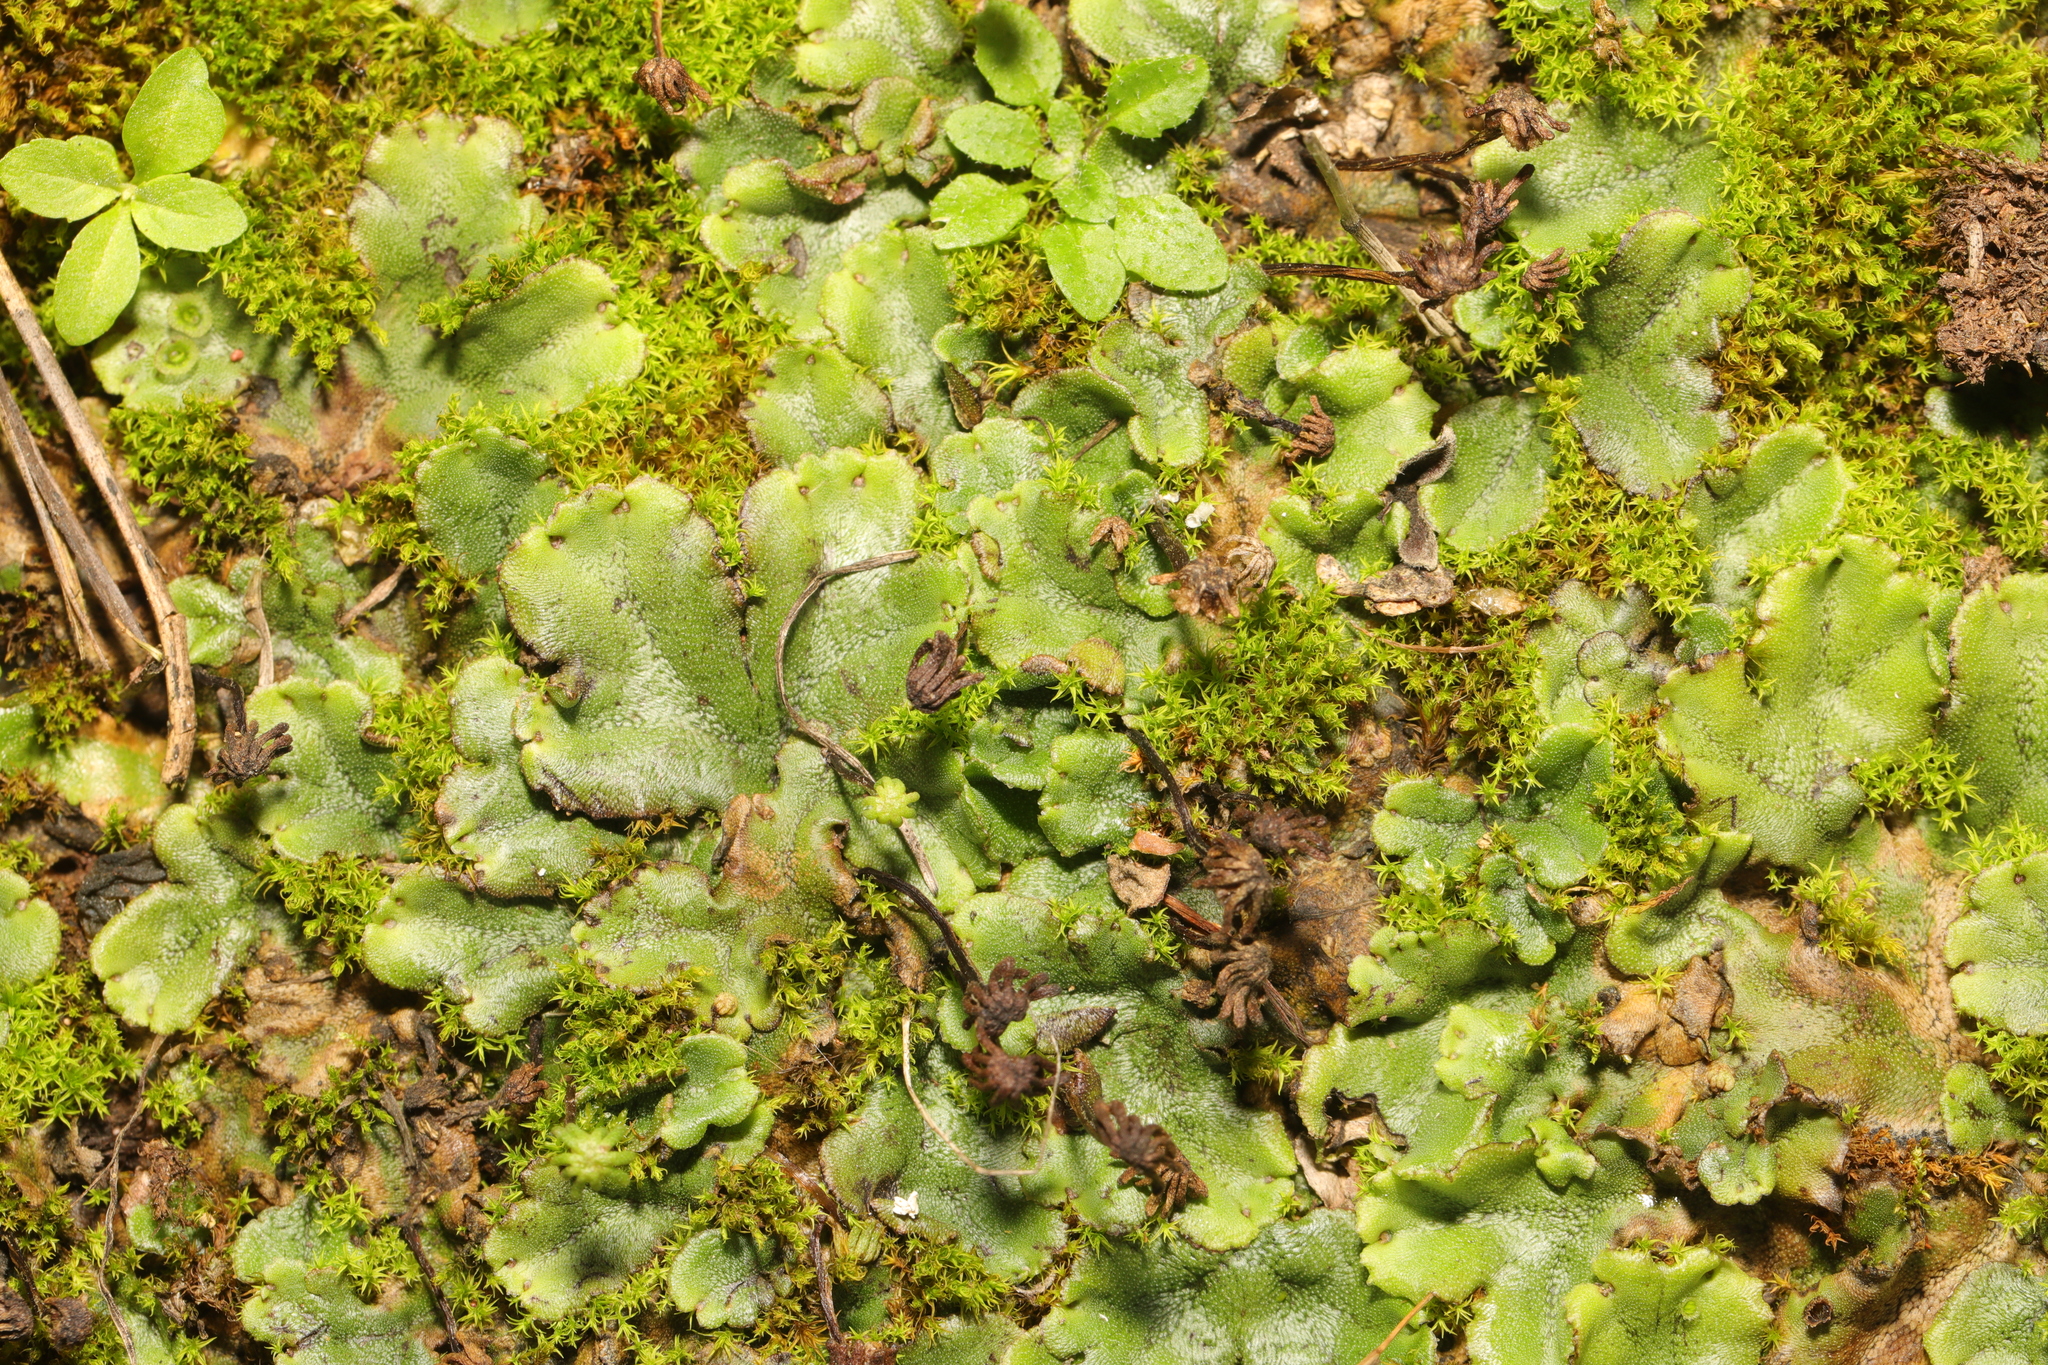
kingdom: Plantae
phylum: Marchantiophyta
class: Marchantiopsida
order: Marchantiales
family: Marchantiaceae
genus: Marchantia
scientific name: Marchantia polymorpha
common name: Common liverwort
